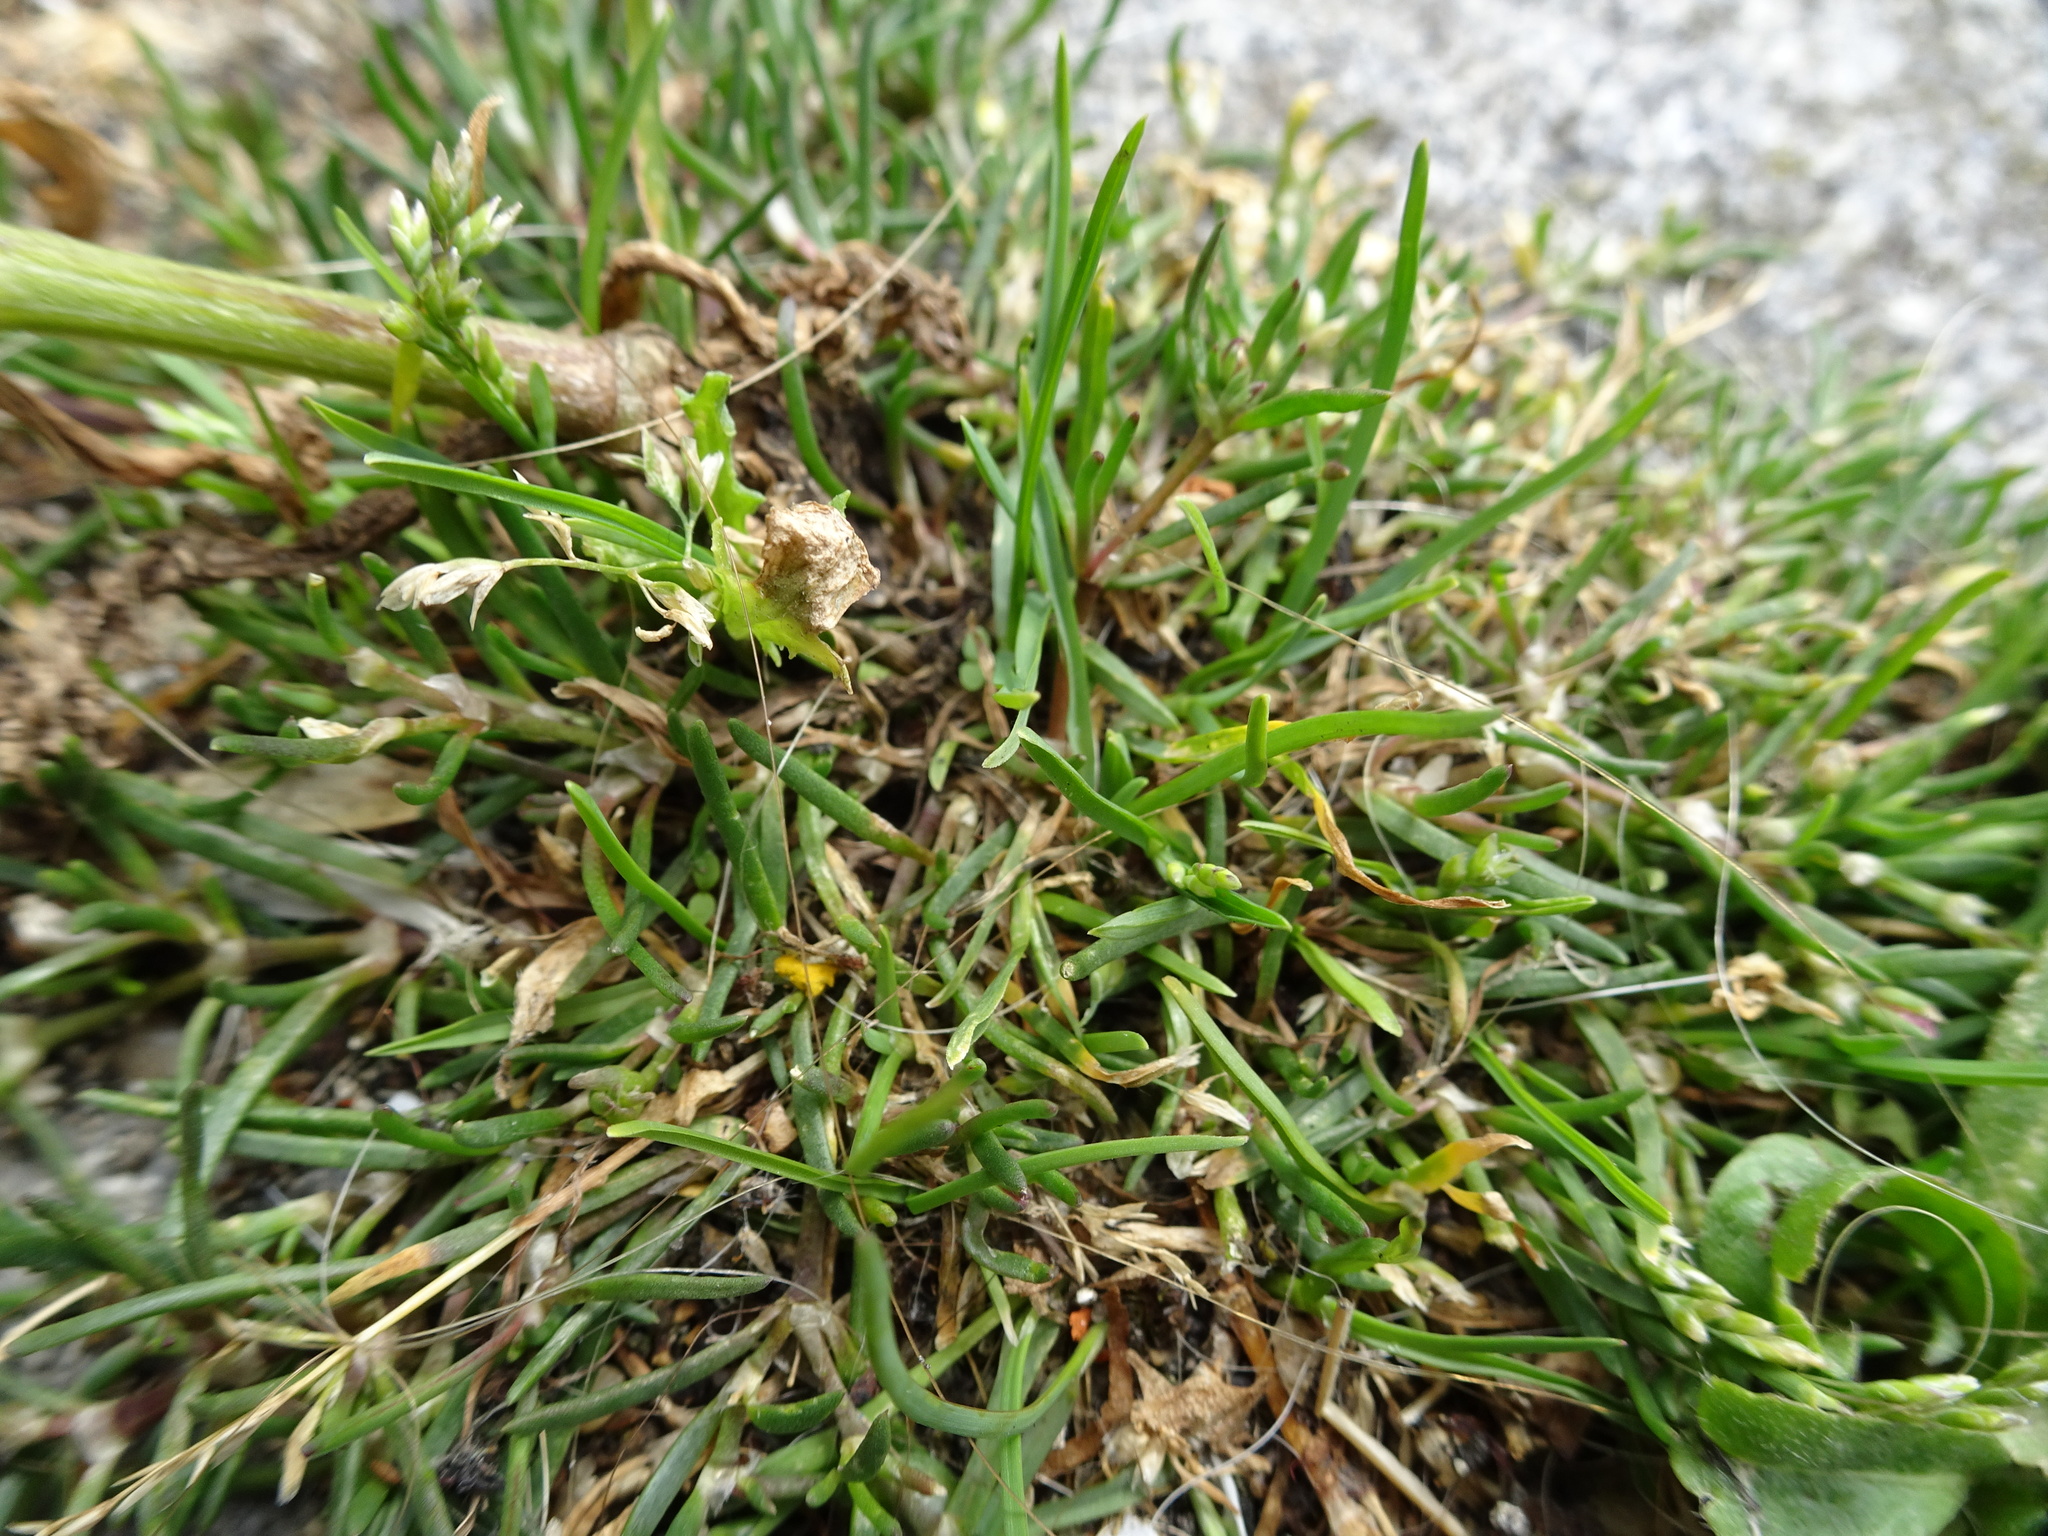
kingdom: Plantae
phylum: Tracheophyta
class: Liliopsida
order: Poales
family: Poaceae
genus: Poa
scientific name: Poa annua
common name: Annual bluegrass
